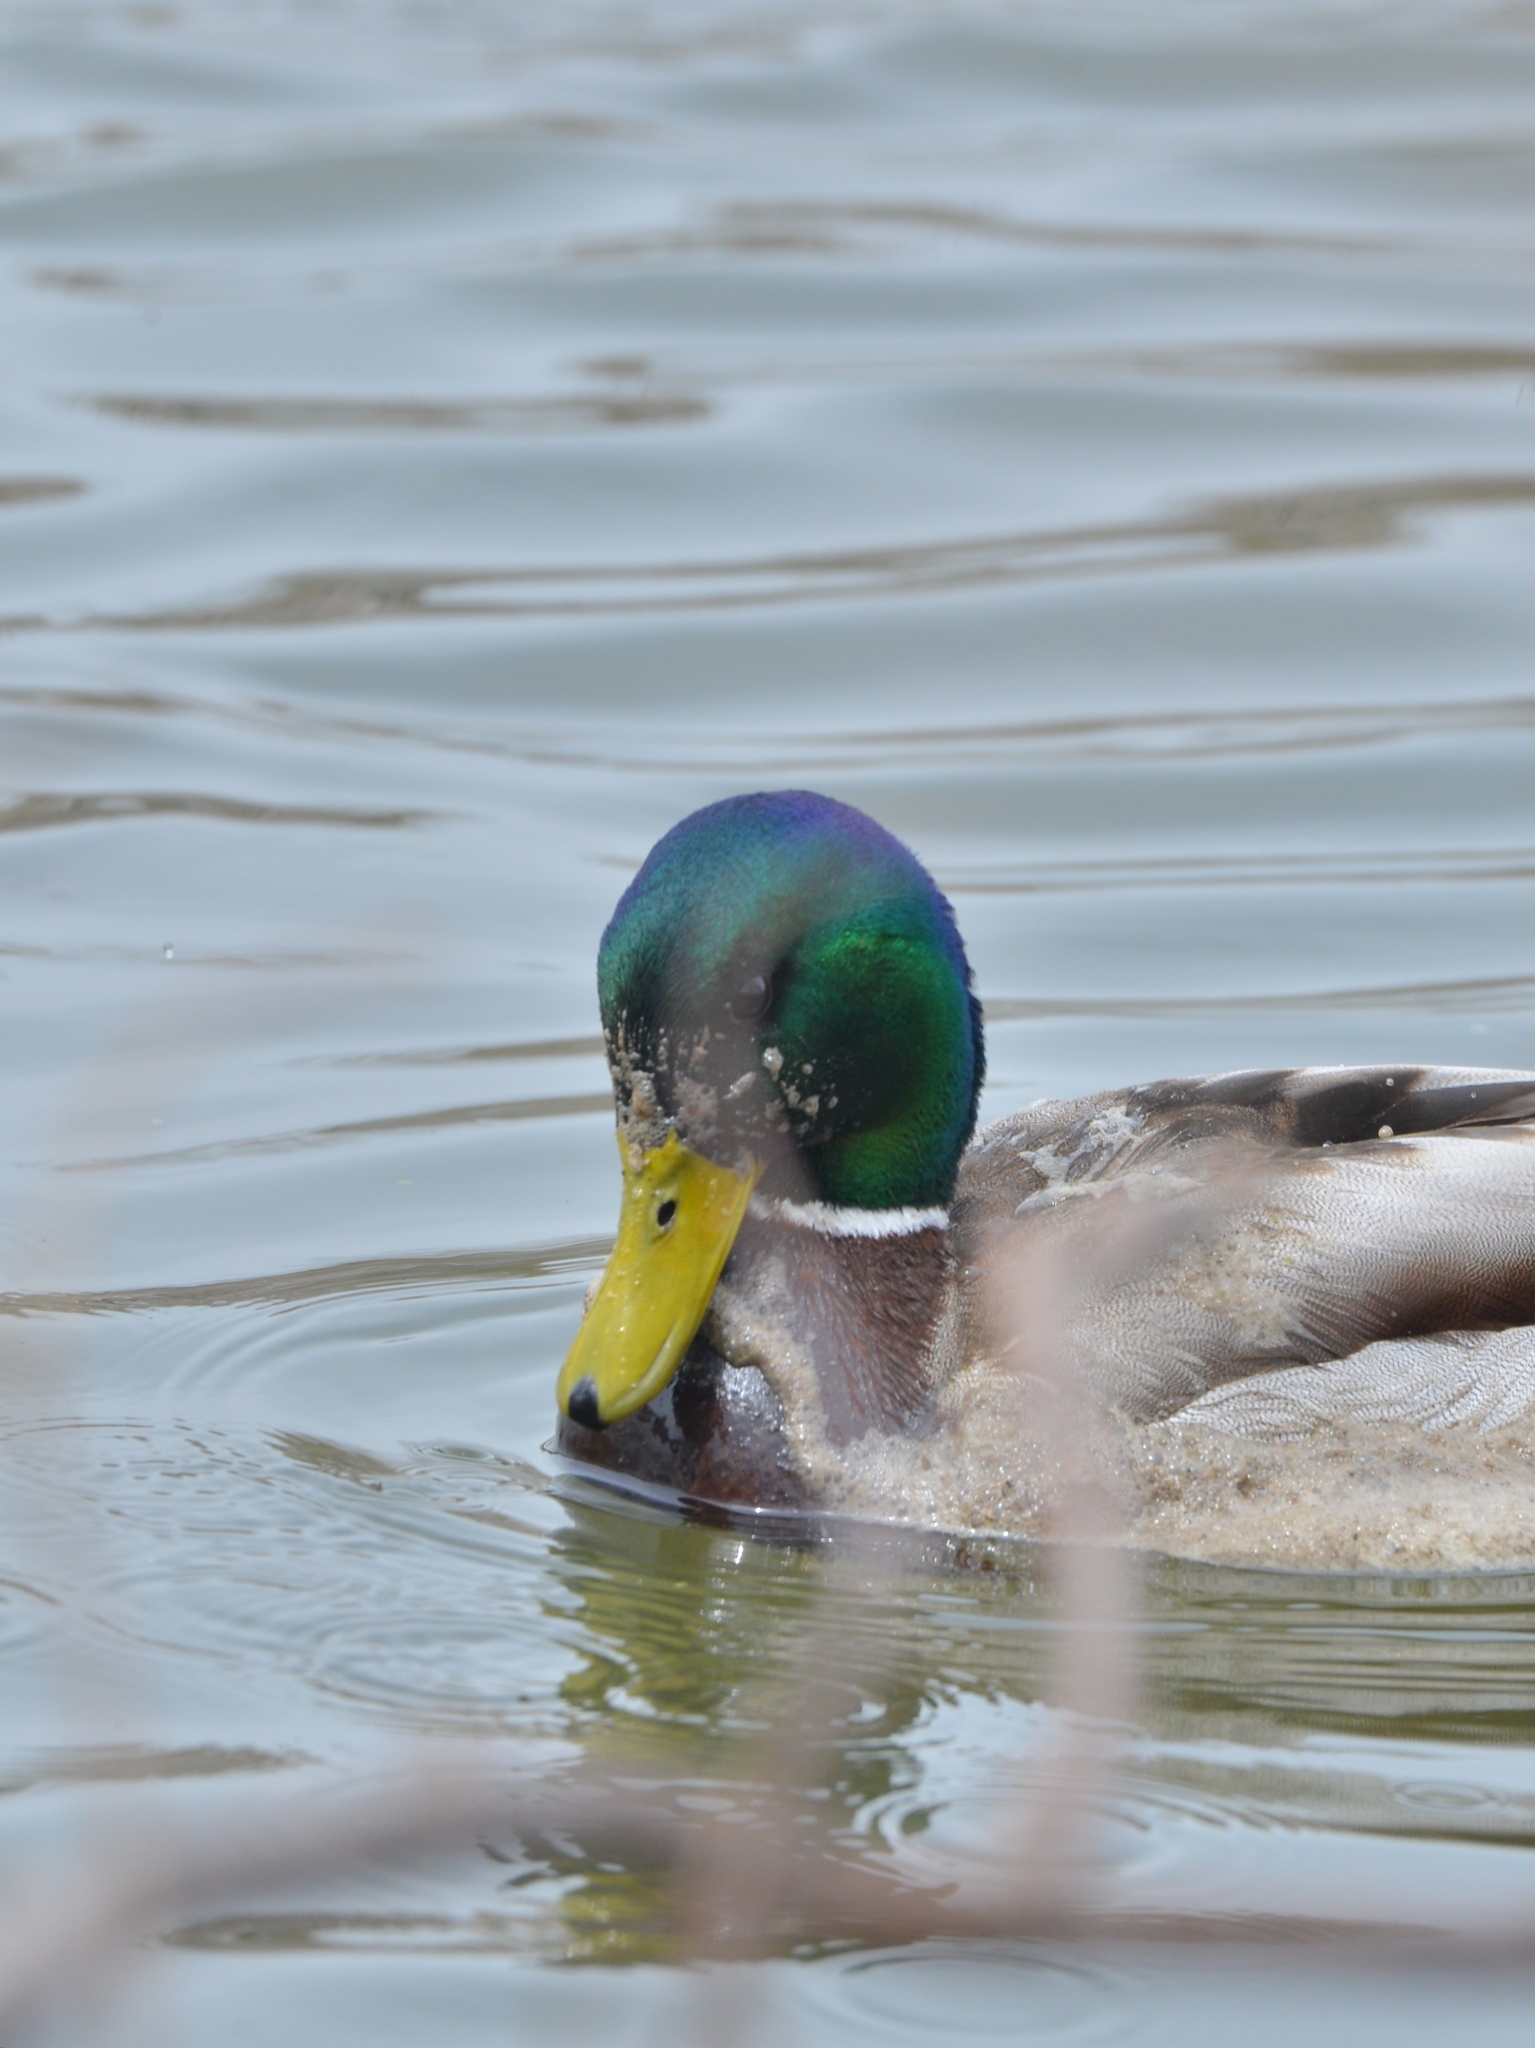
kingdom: Animalia
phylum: Chordata
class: Aves
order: Anseriformes
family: Anatidae
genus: Anas
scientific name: Anas platyrhynchos
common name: Mallard
